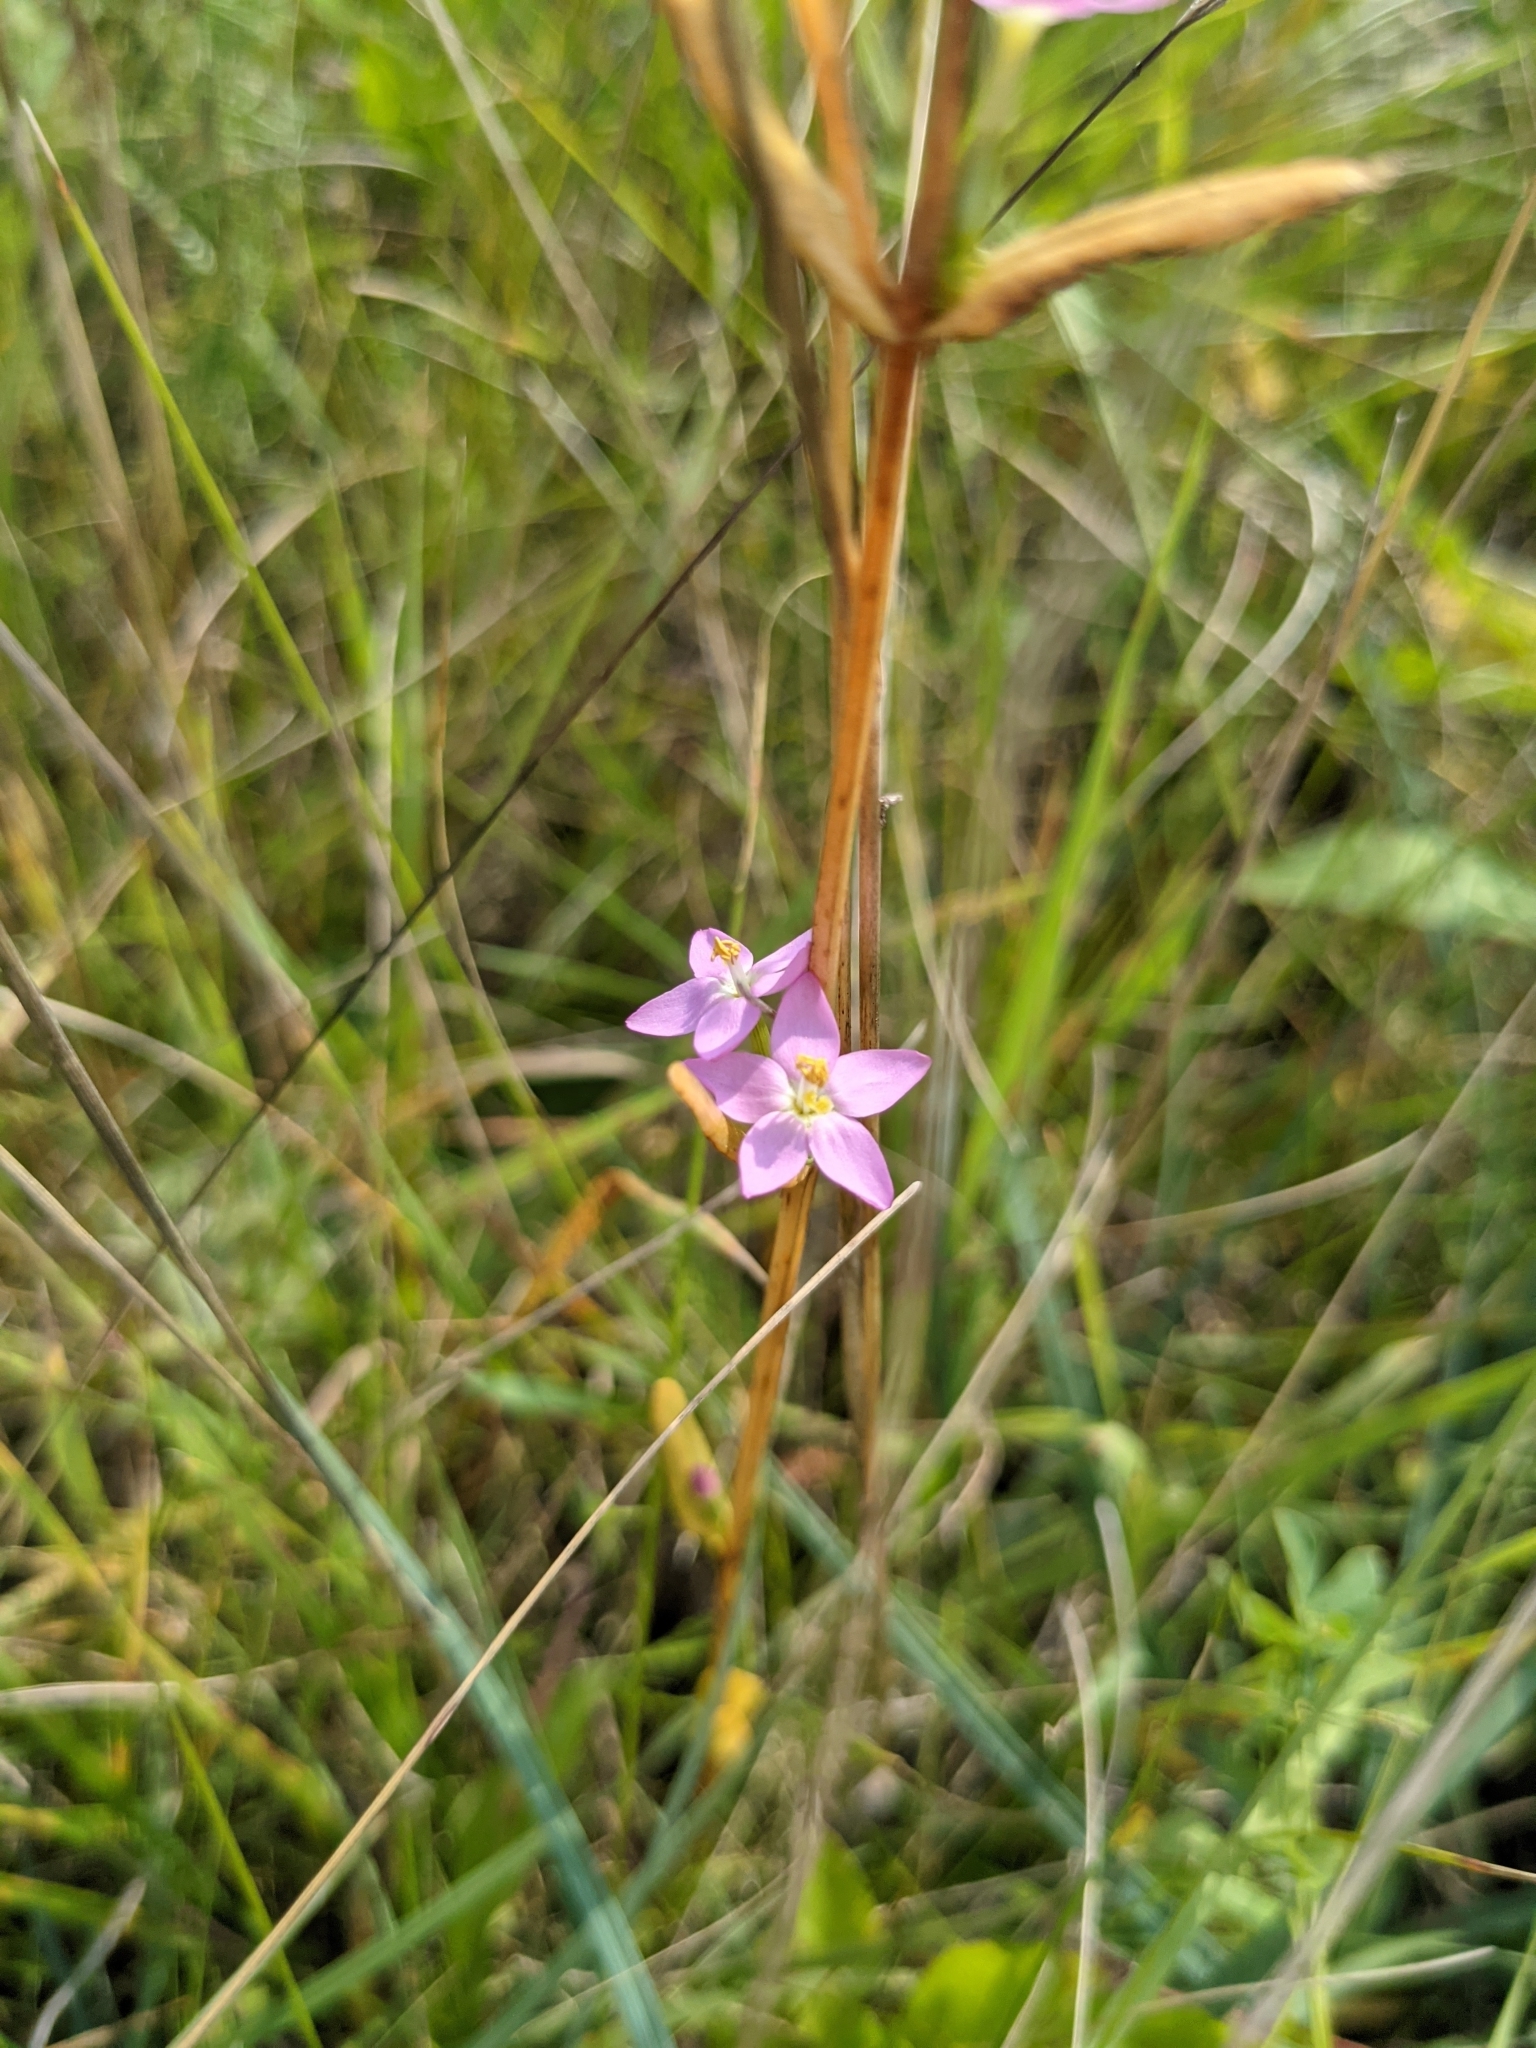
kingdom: Plantae
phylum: Tracheophyta
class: Magnoliopsida
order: Gentianales
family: Gentianaceae
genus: Centaurium
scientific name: Centaurium erythraea
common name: Common centaury
